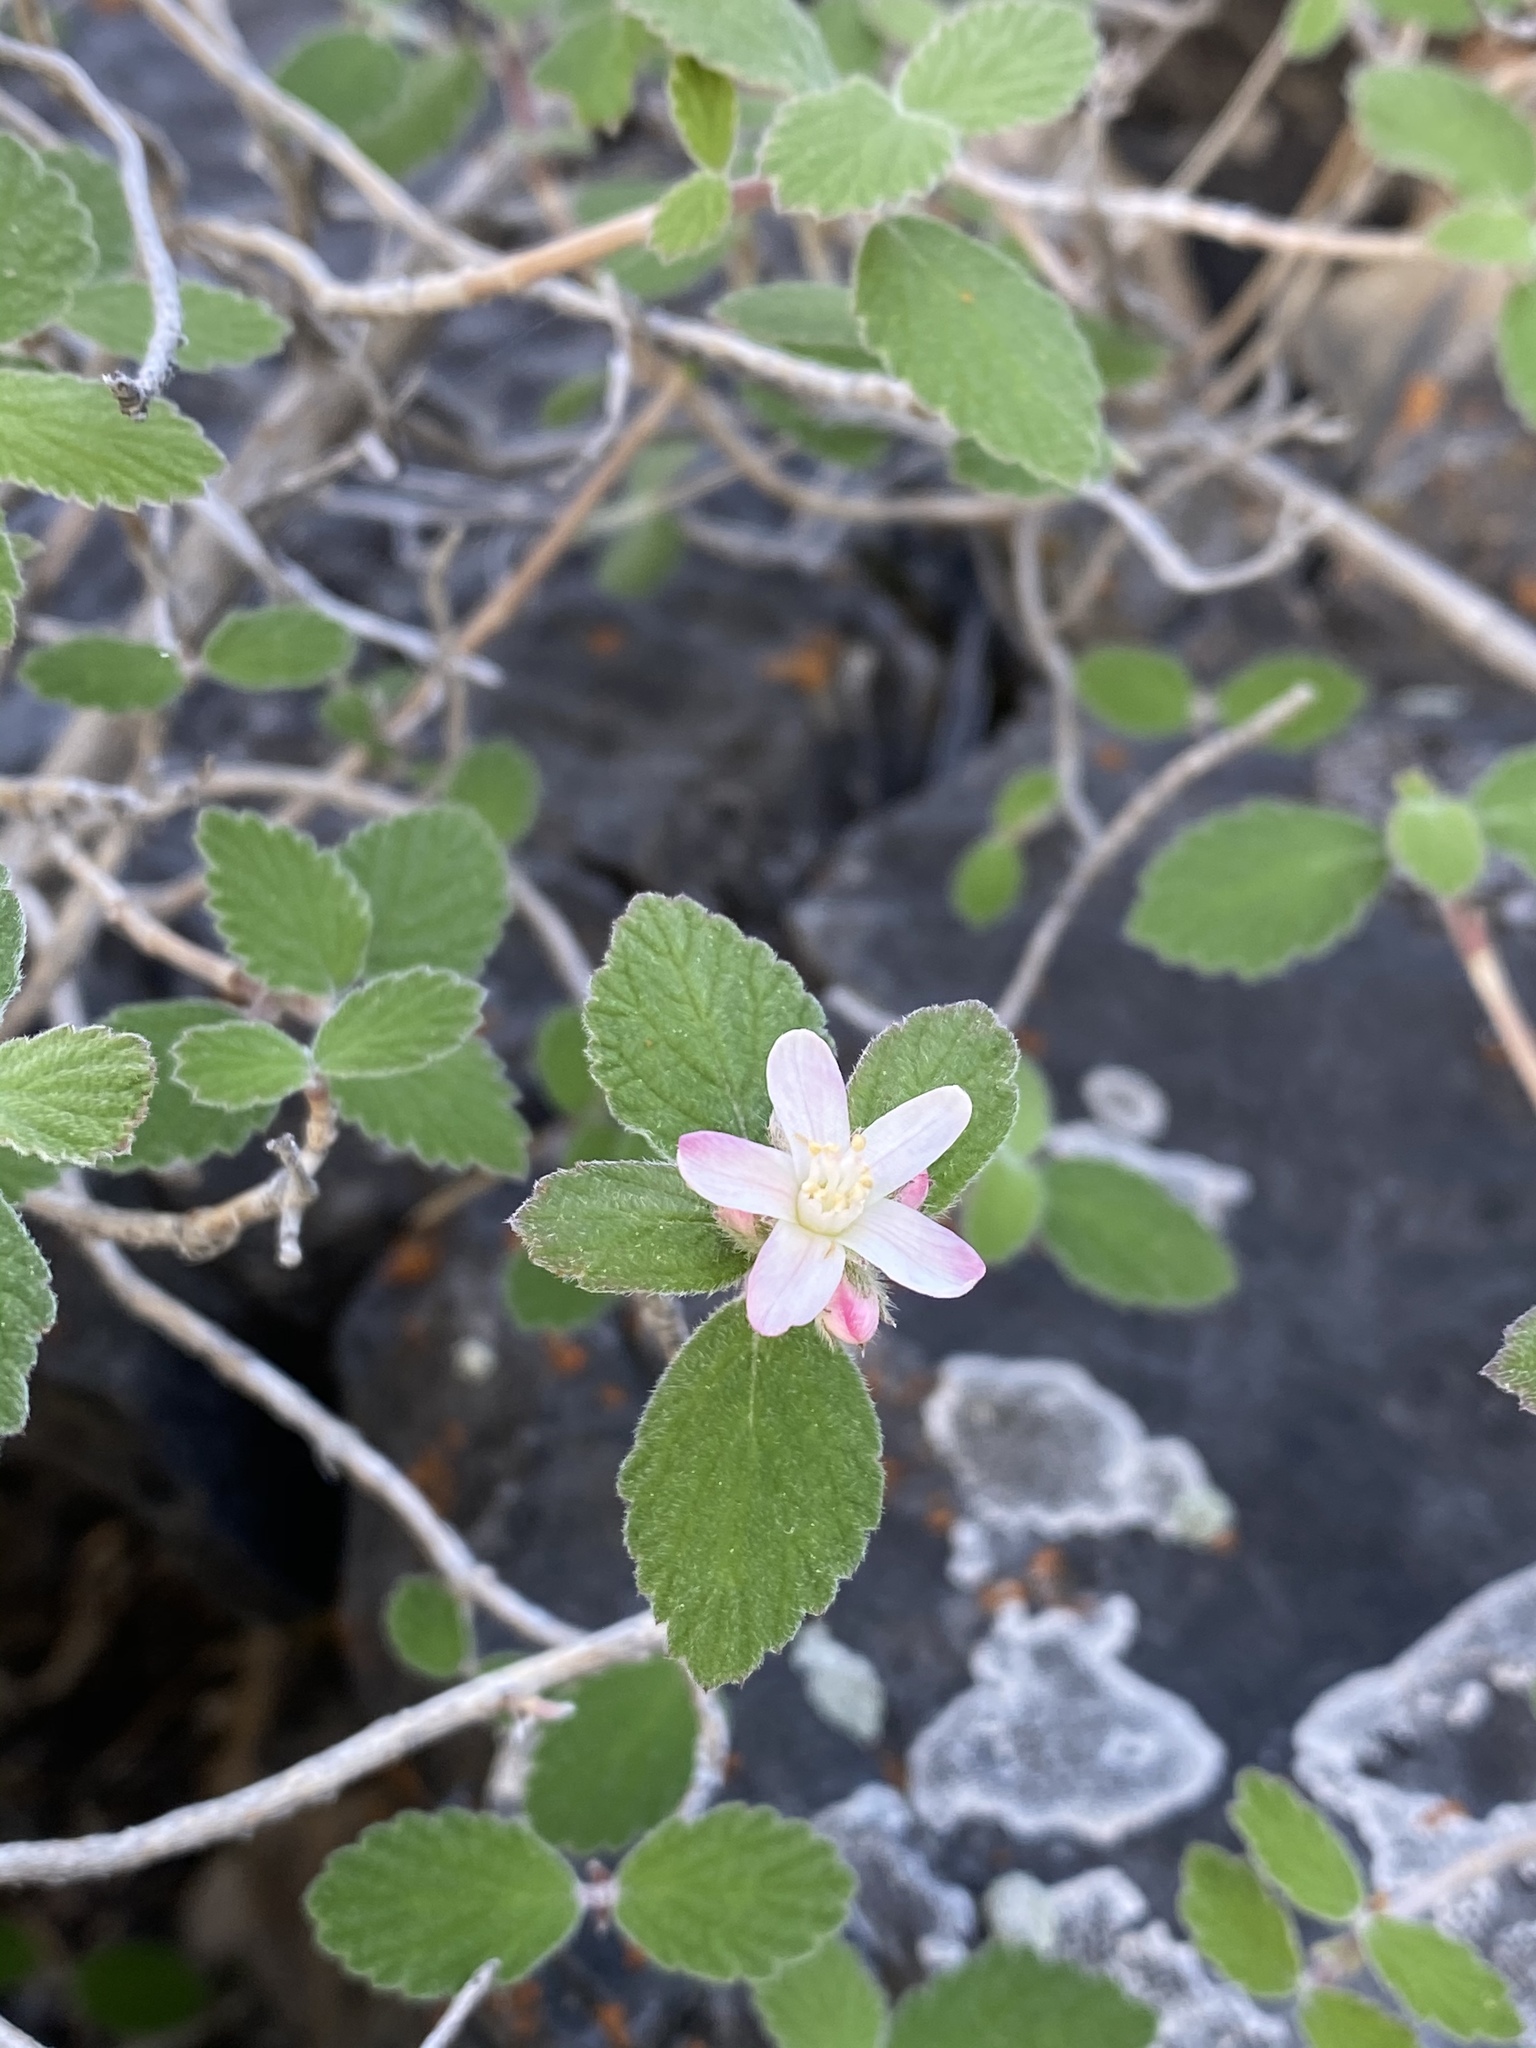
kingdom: Plantae
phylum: Tracheophyta
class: Magnoliopsida
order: Cornales
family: Hydrangeaceae
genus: Jamesia
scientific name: Jamesia americana
